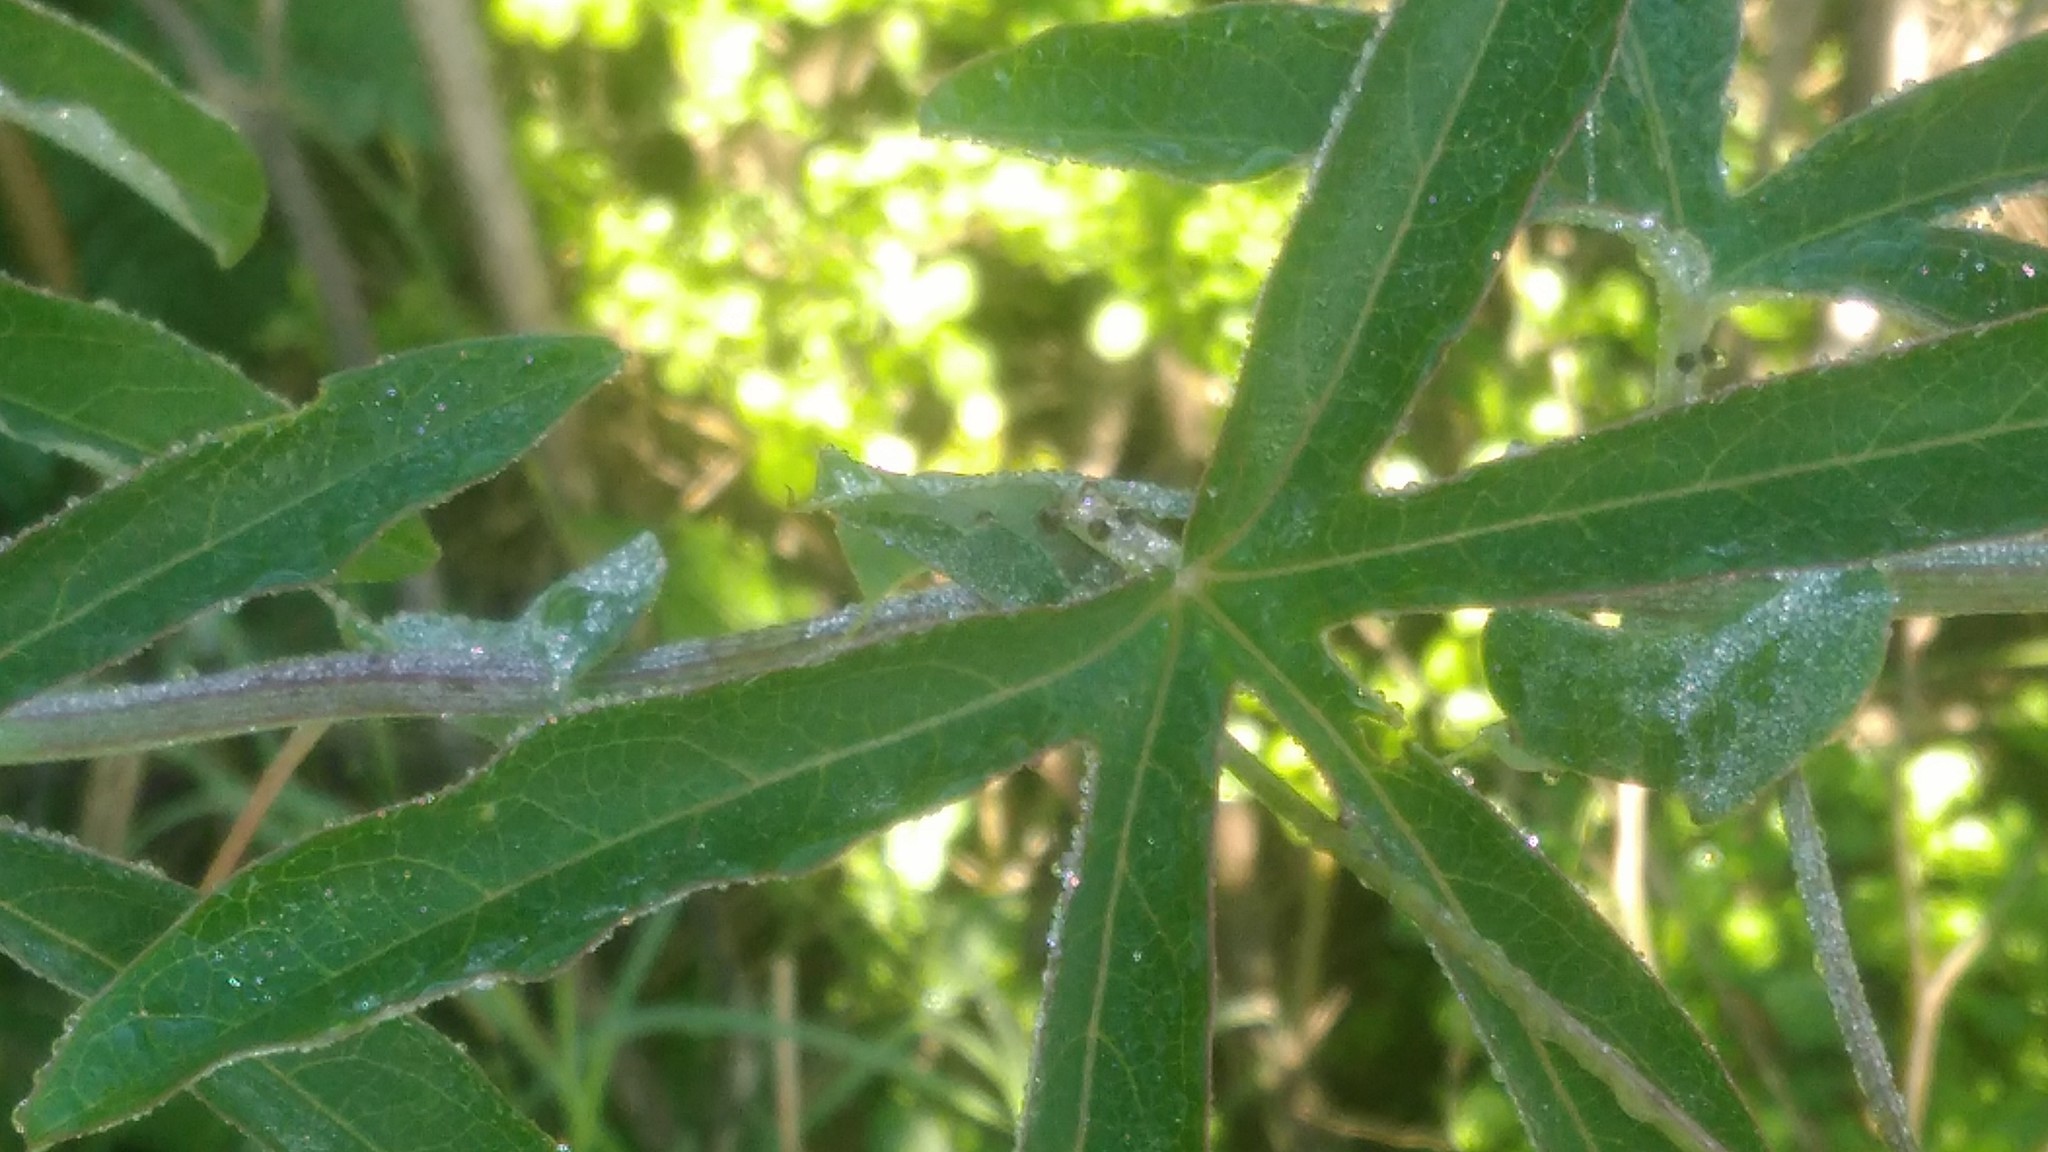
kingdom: Plantae
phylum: Tracheophyta
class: Magnoliopsida
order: Malpighiales
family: Passifloraceae
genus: Passiflora
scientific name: Passiflora caerulea
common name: Blue passionflower
